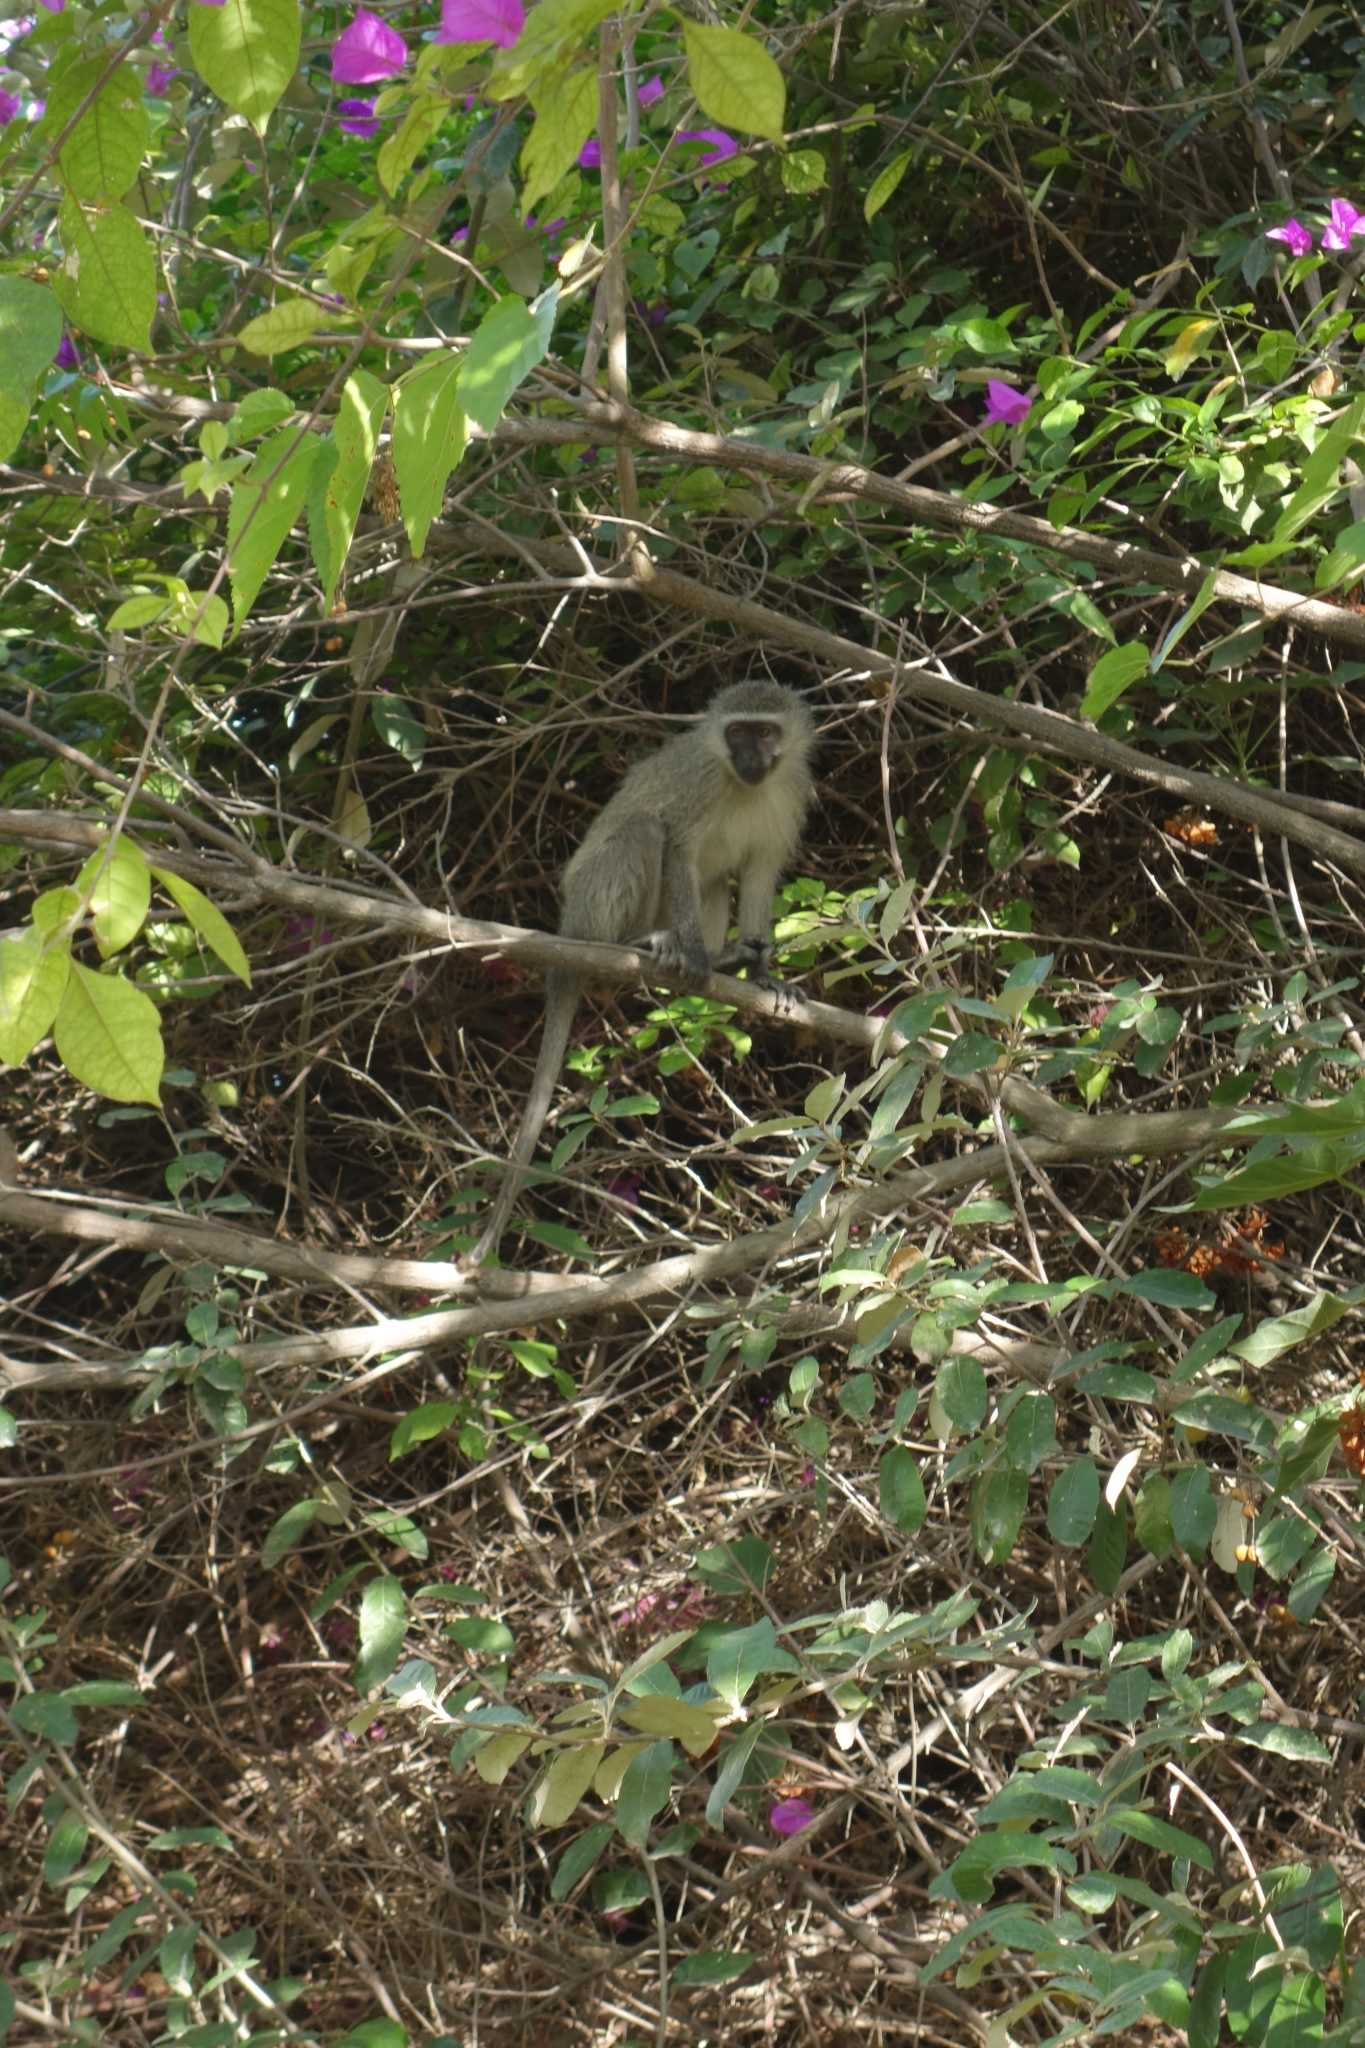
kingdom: Animalia
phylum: Chordata
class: Mammalia
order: Primates
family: Cercopithecidae
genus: Chlorocebus
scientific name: Chlorocebus pygerythrus
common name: Vervet monkey
